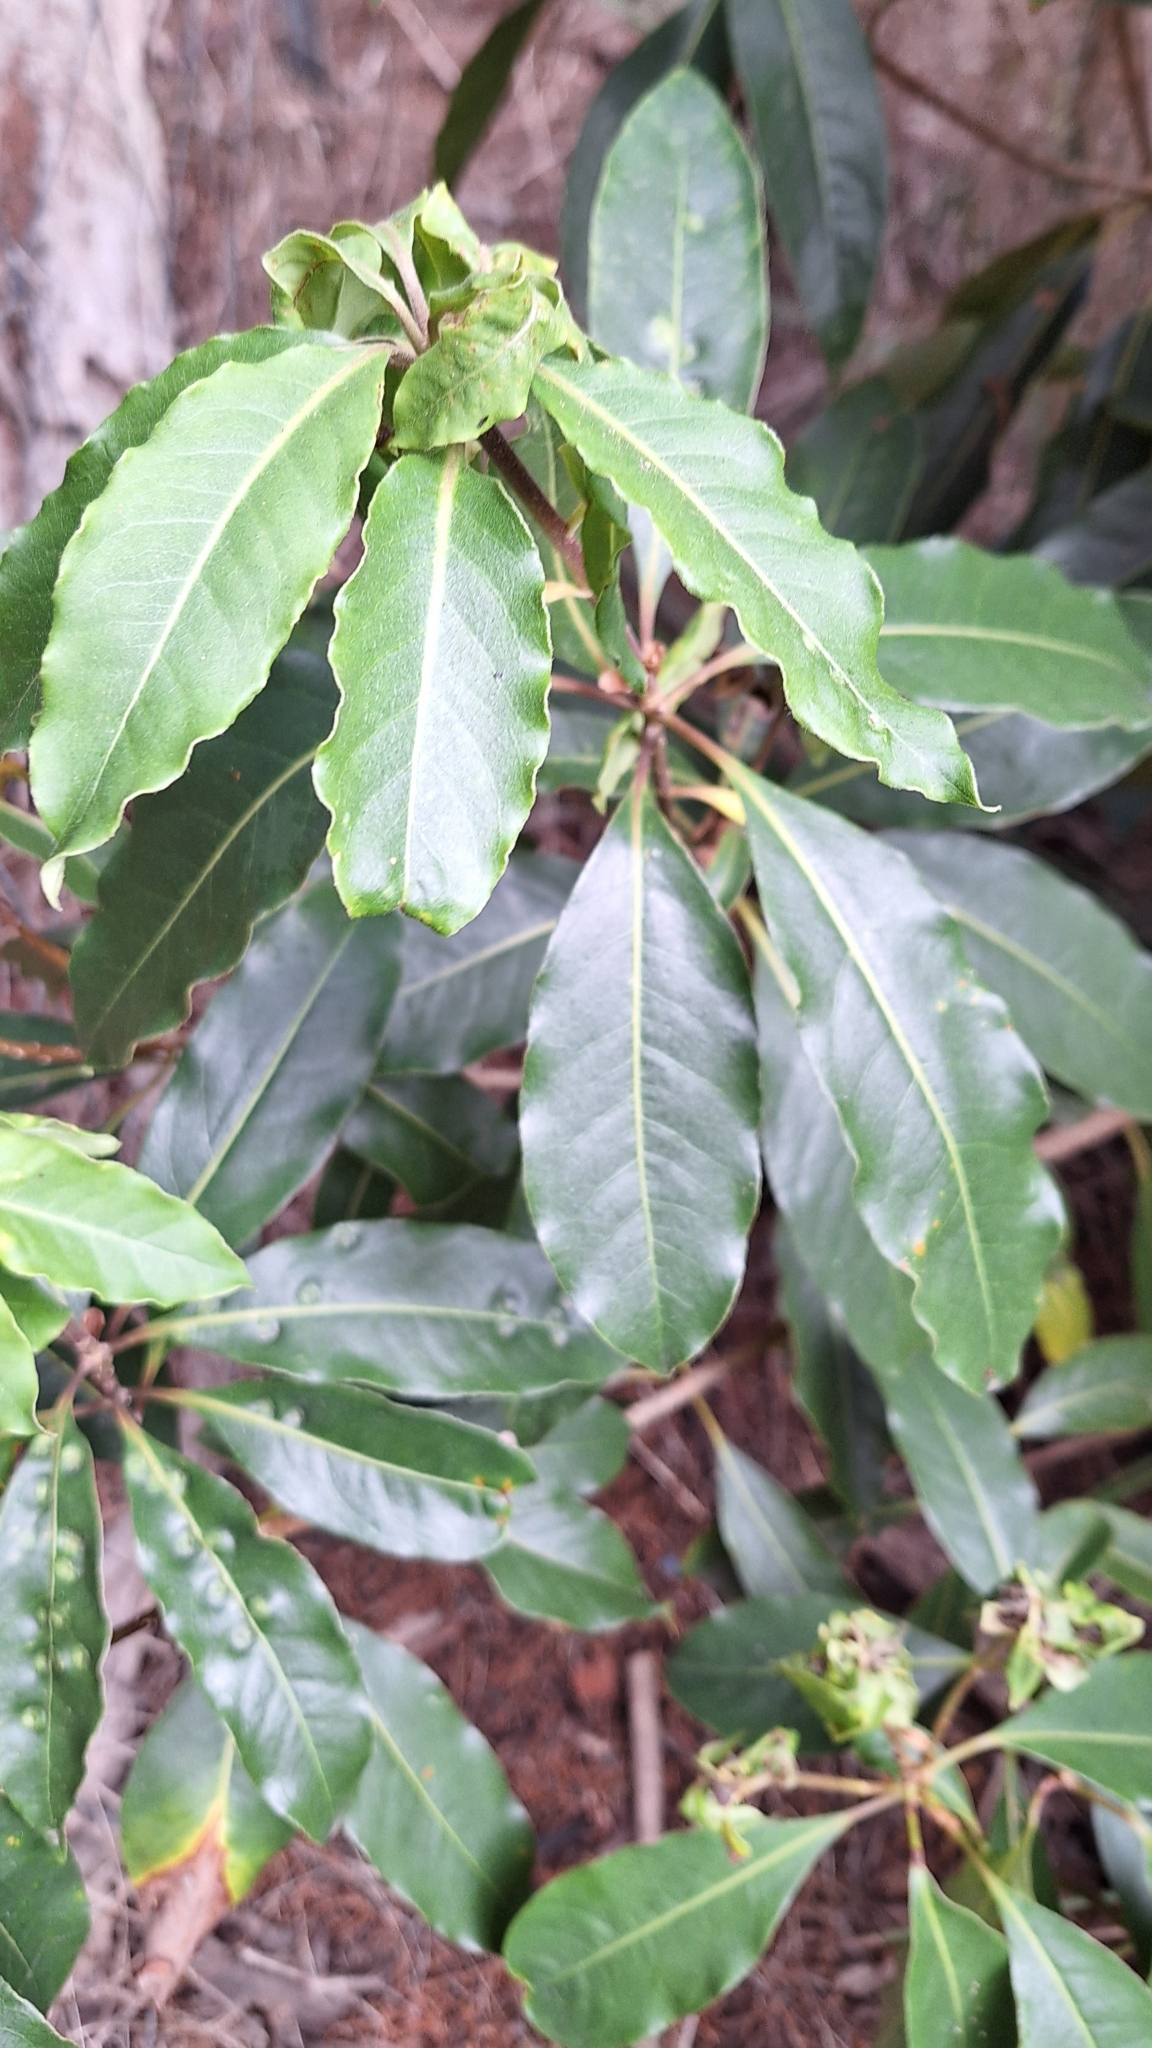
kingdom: Plantae
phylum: Tracheophyta
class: Magnoliopsida
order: Apiales
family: Pittosporaceae
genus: Pittosporum
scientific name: Pittosporum undulatum
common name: Australian cheesewood
